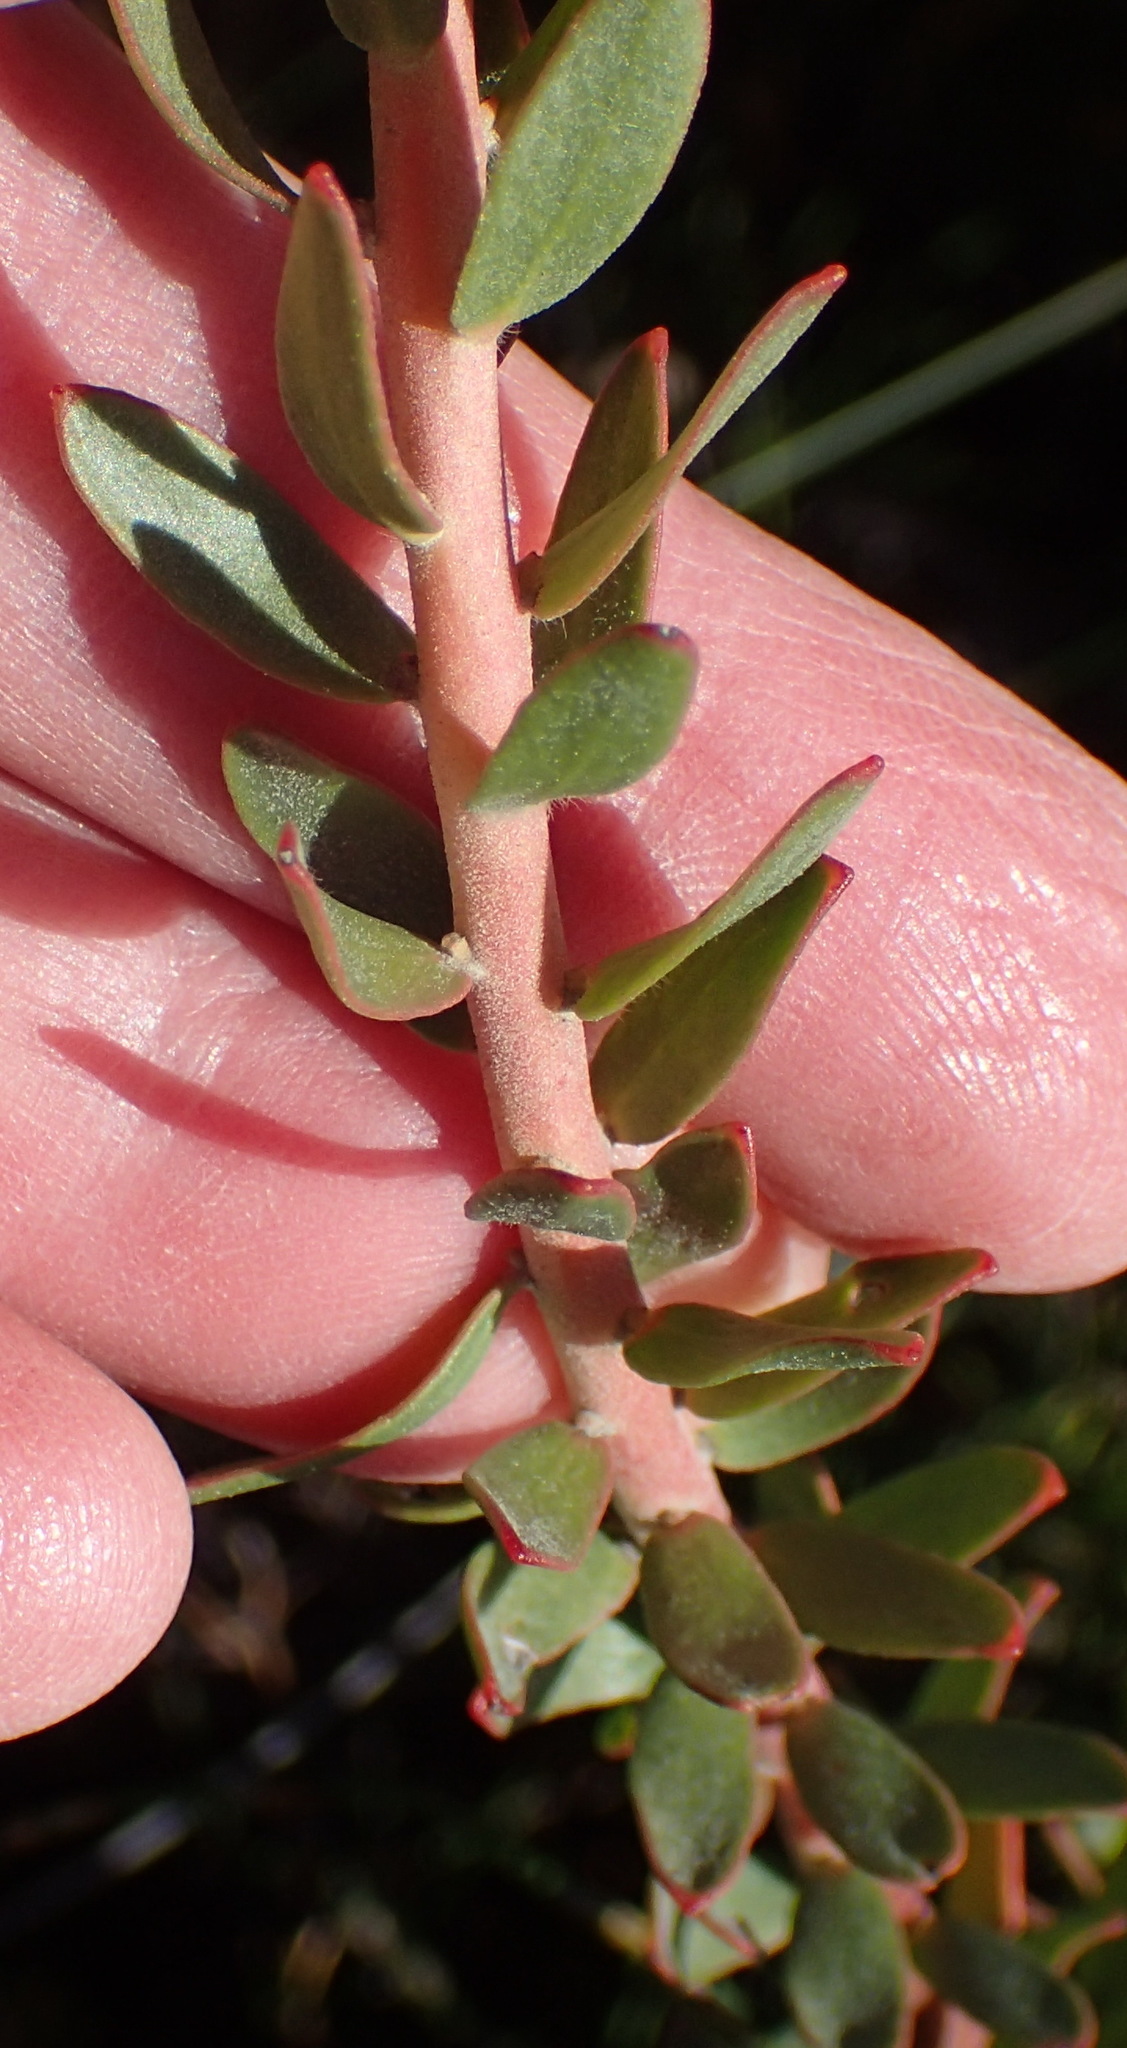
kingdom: Plantae
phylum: Tracheophyta
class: Magnoliopsida
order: Proteales
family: Proteaceae
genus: Leucospermum
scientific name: Leucospermum royenifolium
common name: Eastern pincushion
